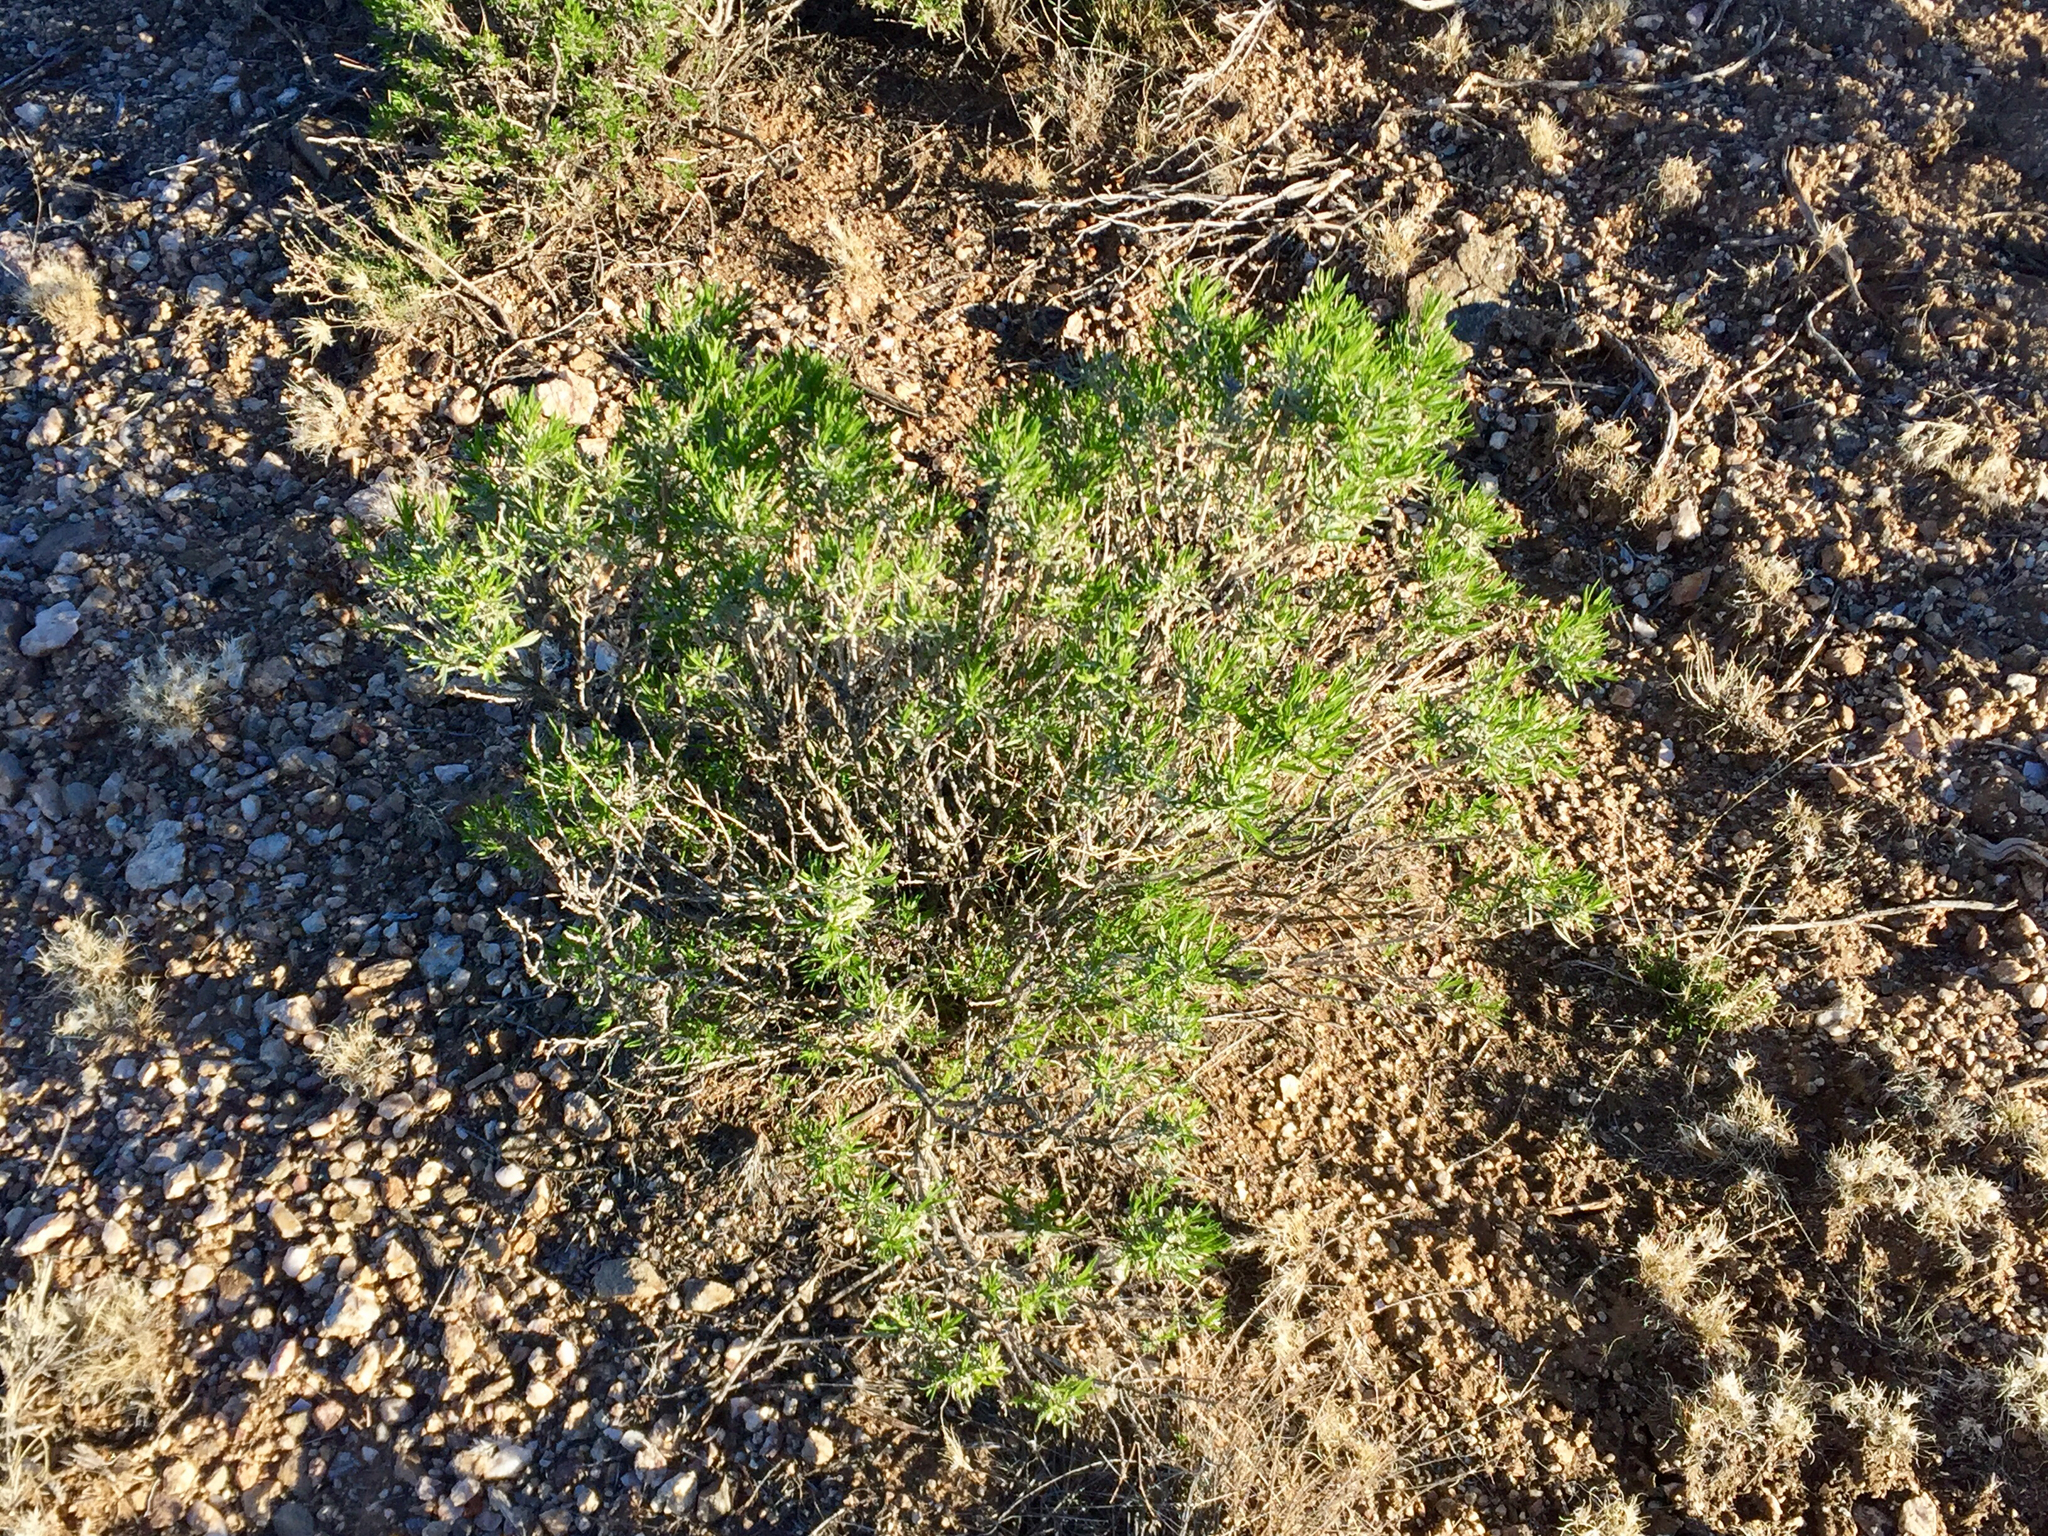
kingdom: Plantae
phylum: Tracheophyta
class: Magnoliopsida
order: Asterales
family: Asteraceae
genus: Ericameria
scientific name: Ericameria laricifolia
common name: Turpentine-bush
